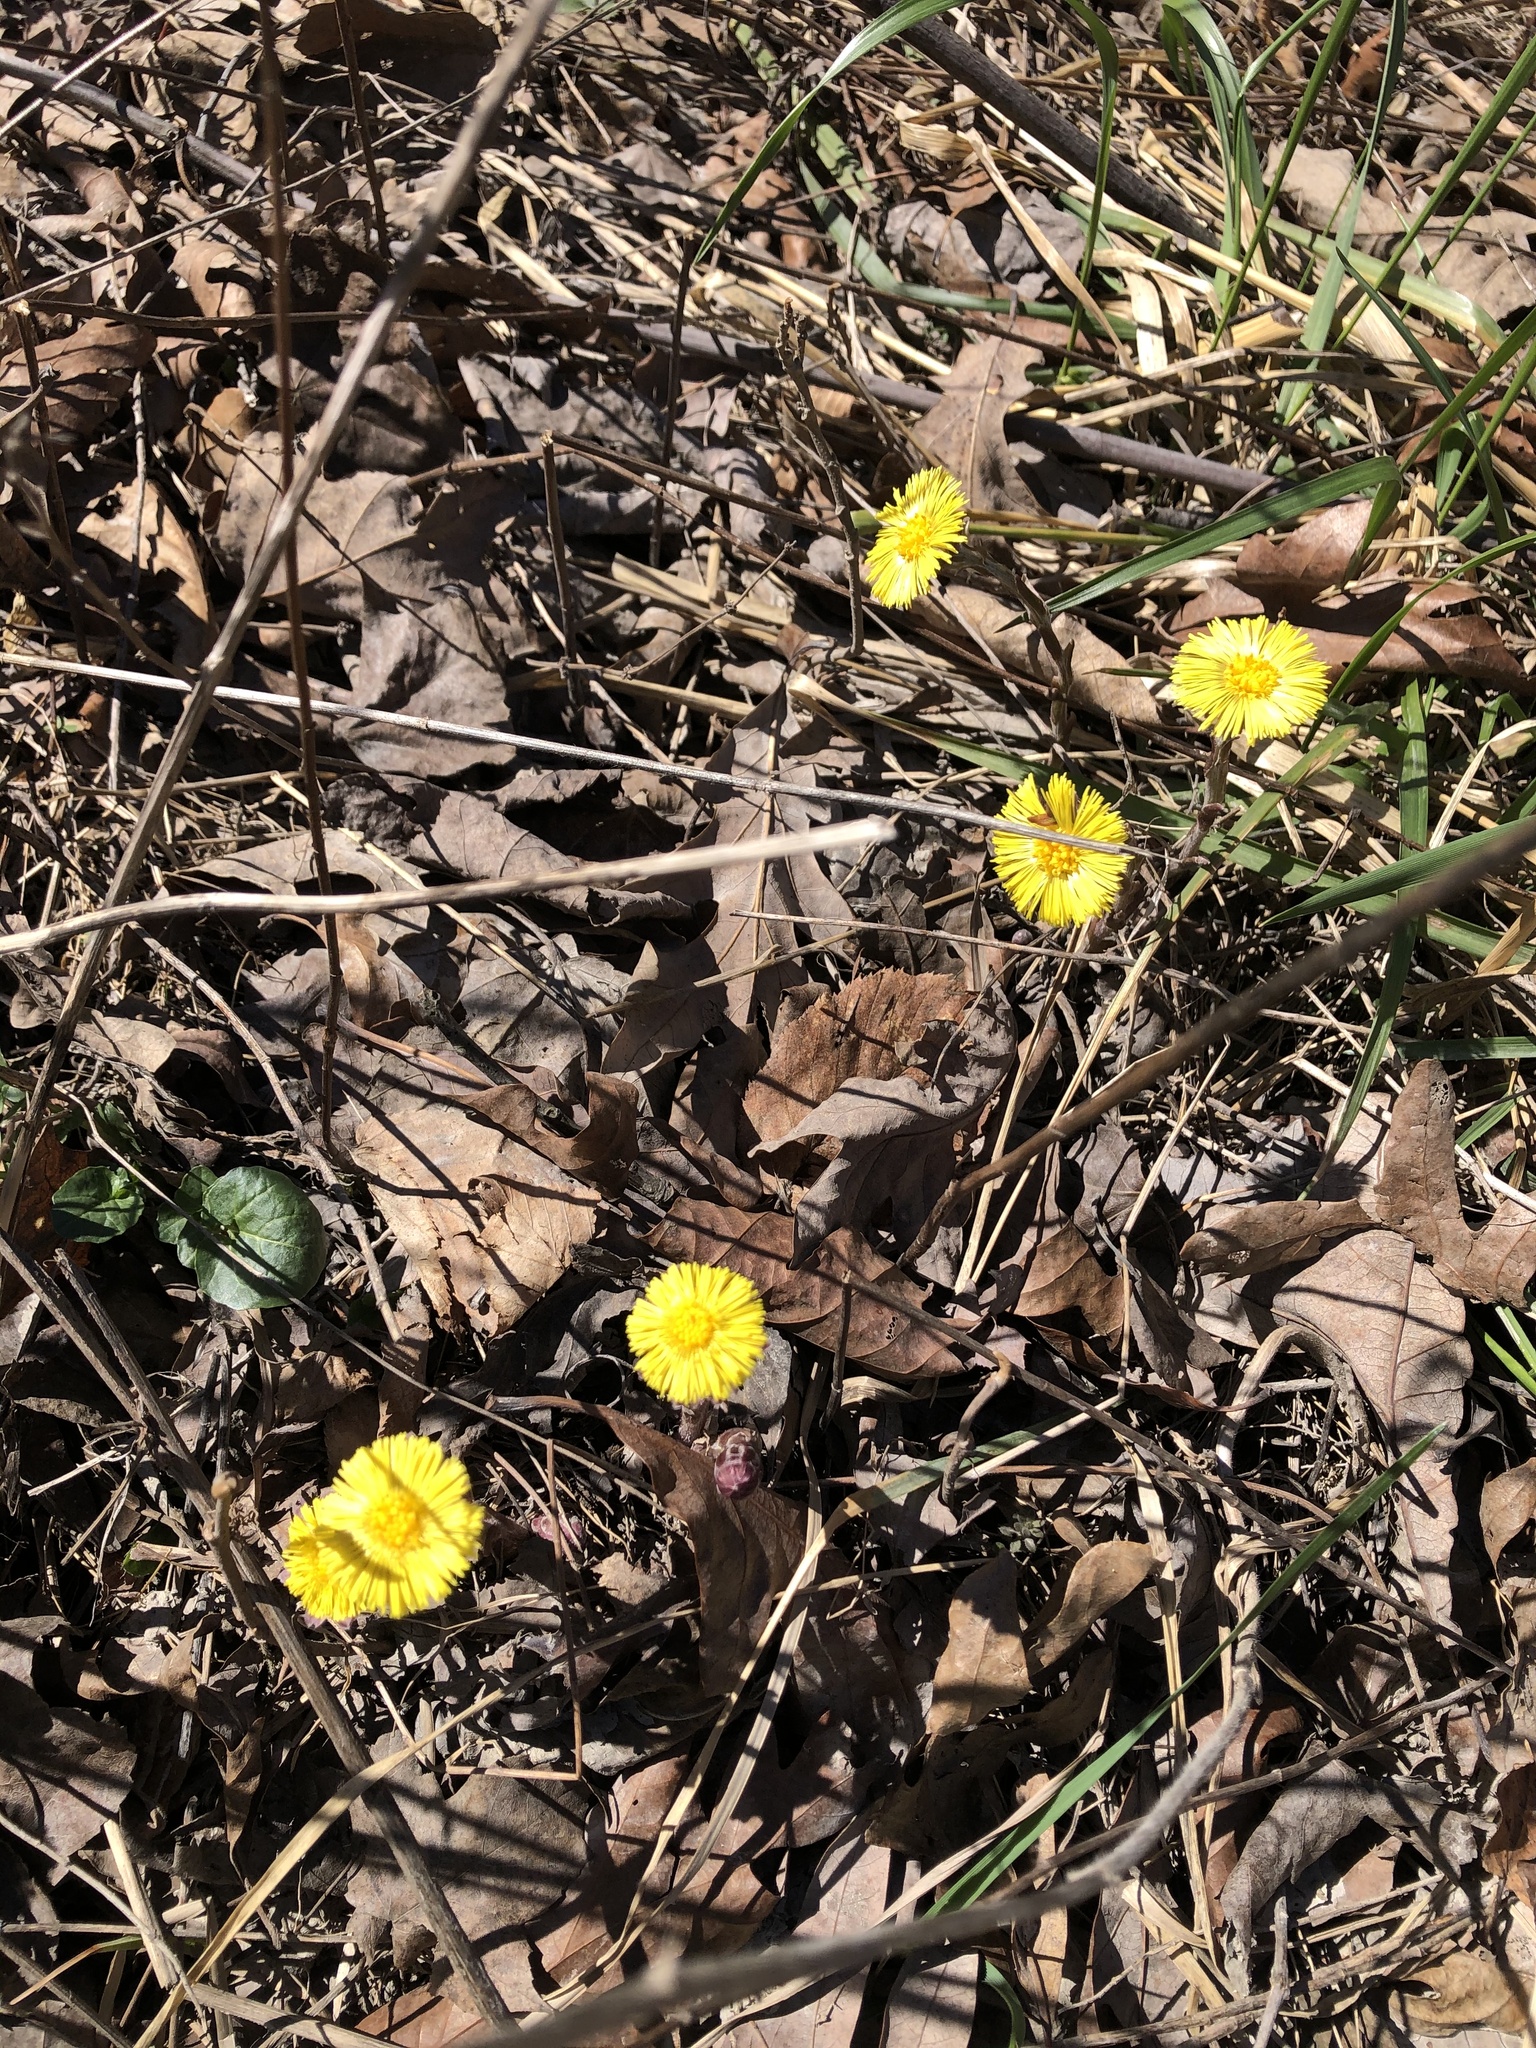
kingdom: Plantae
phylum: Tracheophyta
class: Magnoliopsida
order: Asterales
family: Asteraceae
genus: Tussilago
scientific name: Tussilago farfara
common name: Coltsfoot
